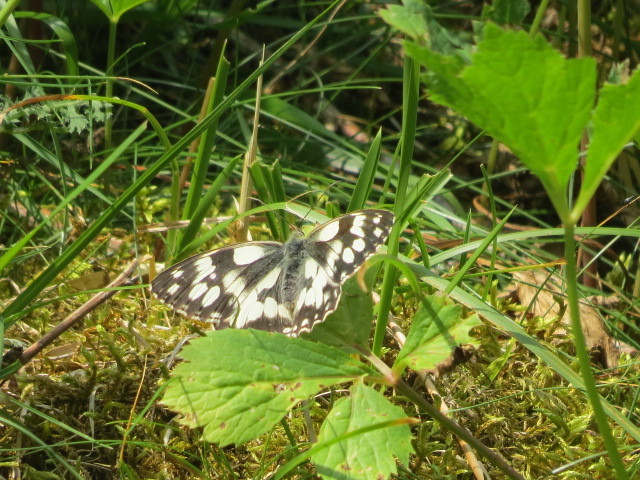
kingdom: Animalia
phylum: Arthropoda
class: Insecta
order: Lepidoptera
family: Nymphalidae
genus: Melanargia
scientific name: Melanargia galathea
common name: Marbled white
